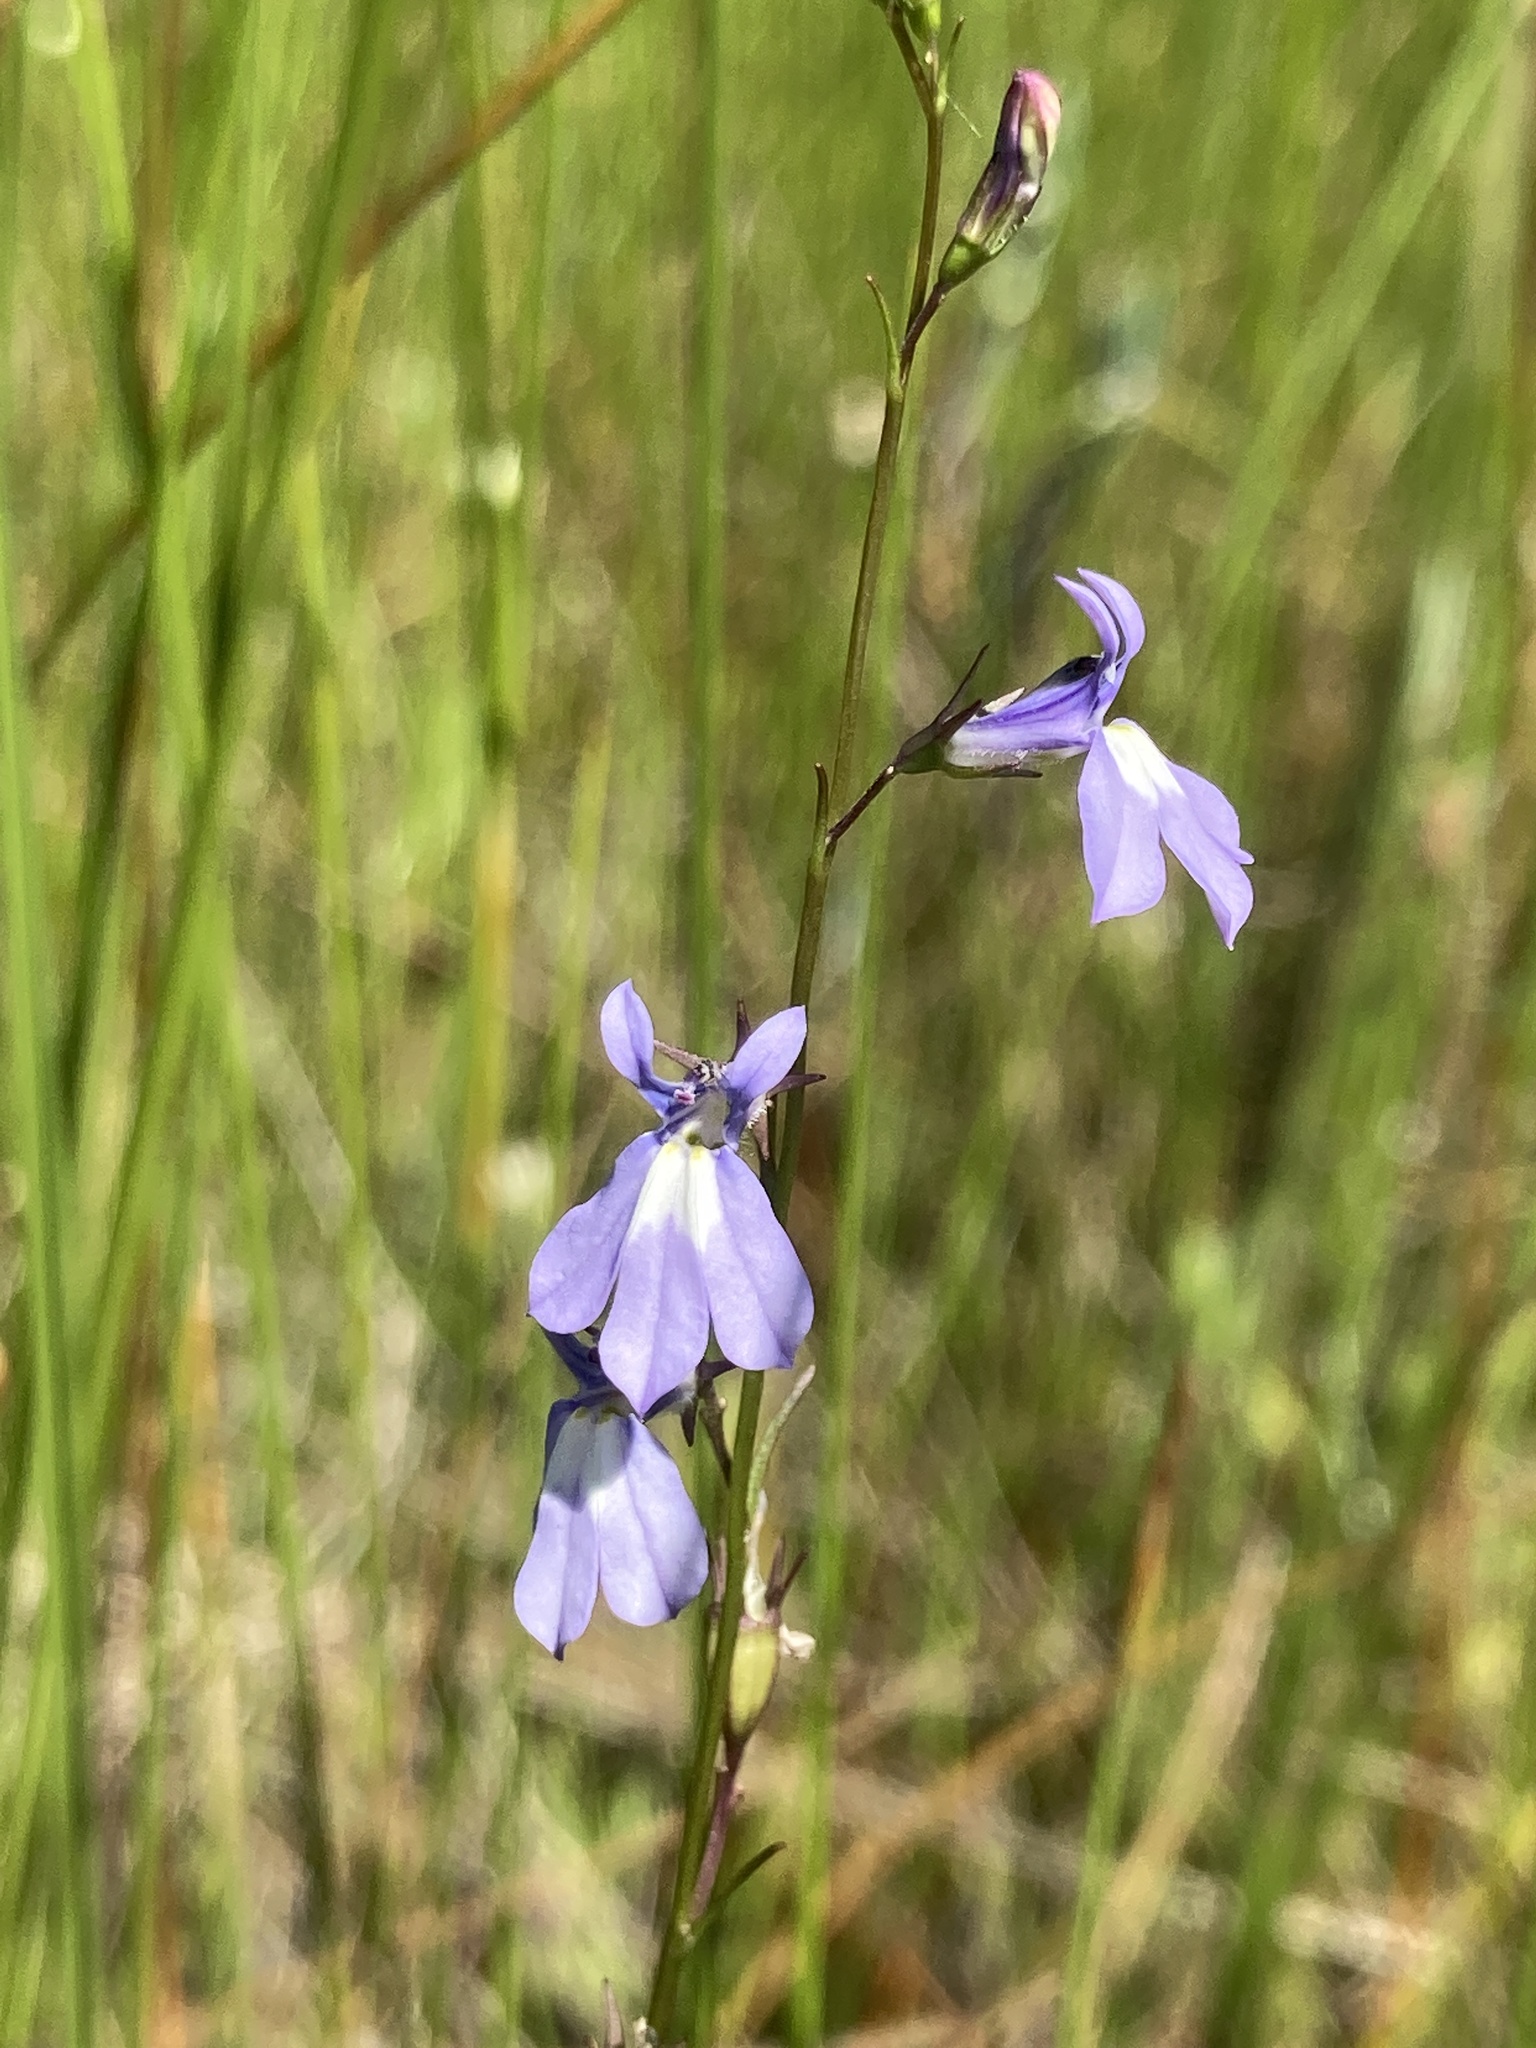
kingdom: Plantae
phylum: Tracheophyta
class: Magnoliopsida
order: Asterales
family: Campanulaceae
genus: Lobelia
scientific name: Lobelia kalmii
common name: Kalm's lobelia
